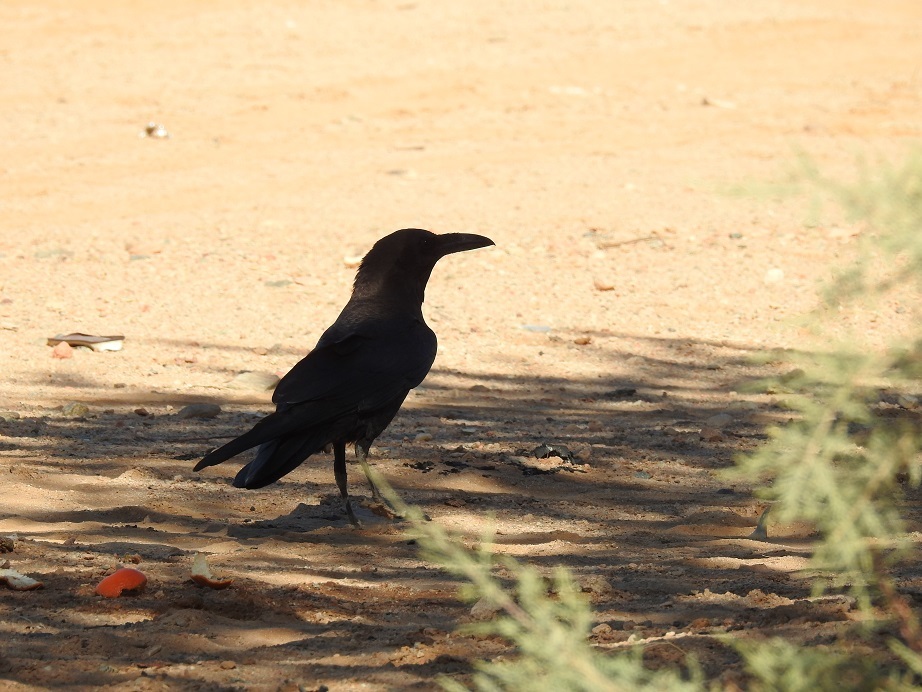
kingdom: Animalia
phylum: Chordata
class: Aves
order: Passeriformes
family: Corvidae
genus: Corvus
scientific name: Corvus ruficollis
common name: Brown-necked raven
